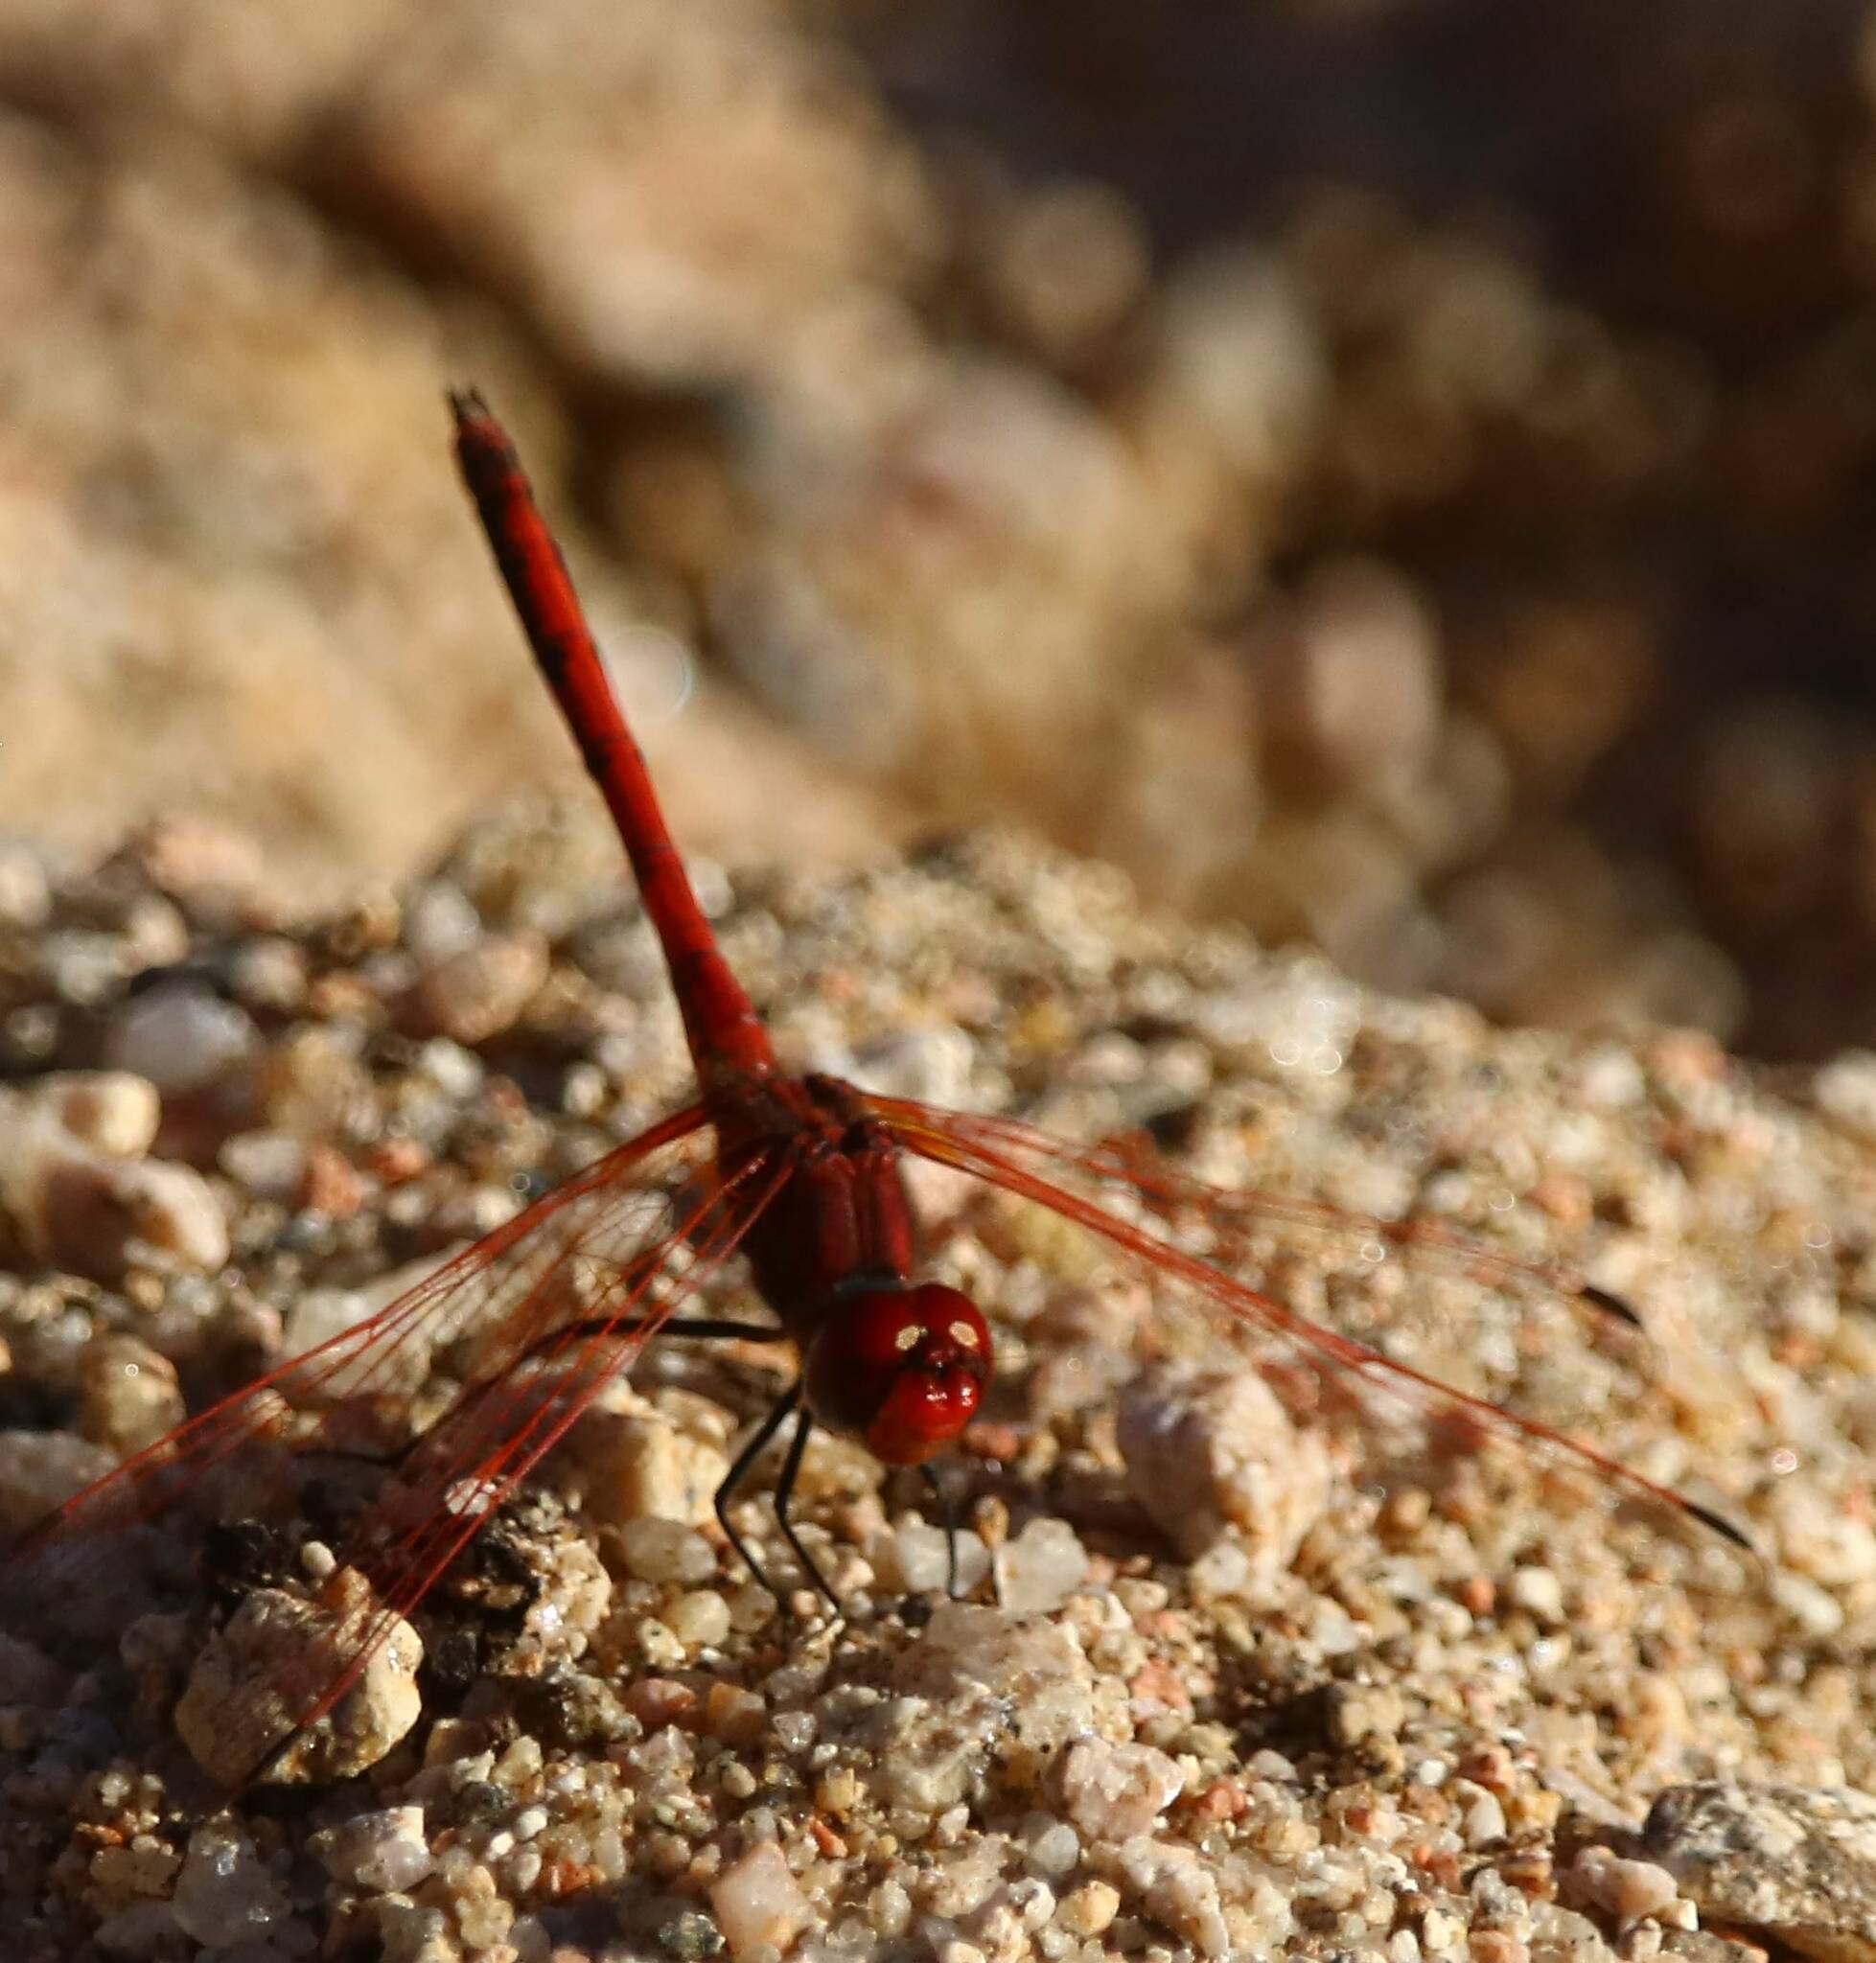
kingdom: Animalia
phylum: Arthropoda
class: Insecta
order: Odonata
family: Libellulidae
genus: Trithemis
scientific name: Trithemis arteriosa
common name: Red-veined dropwing
